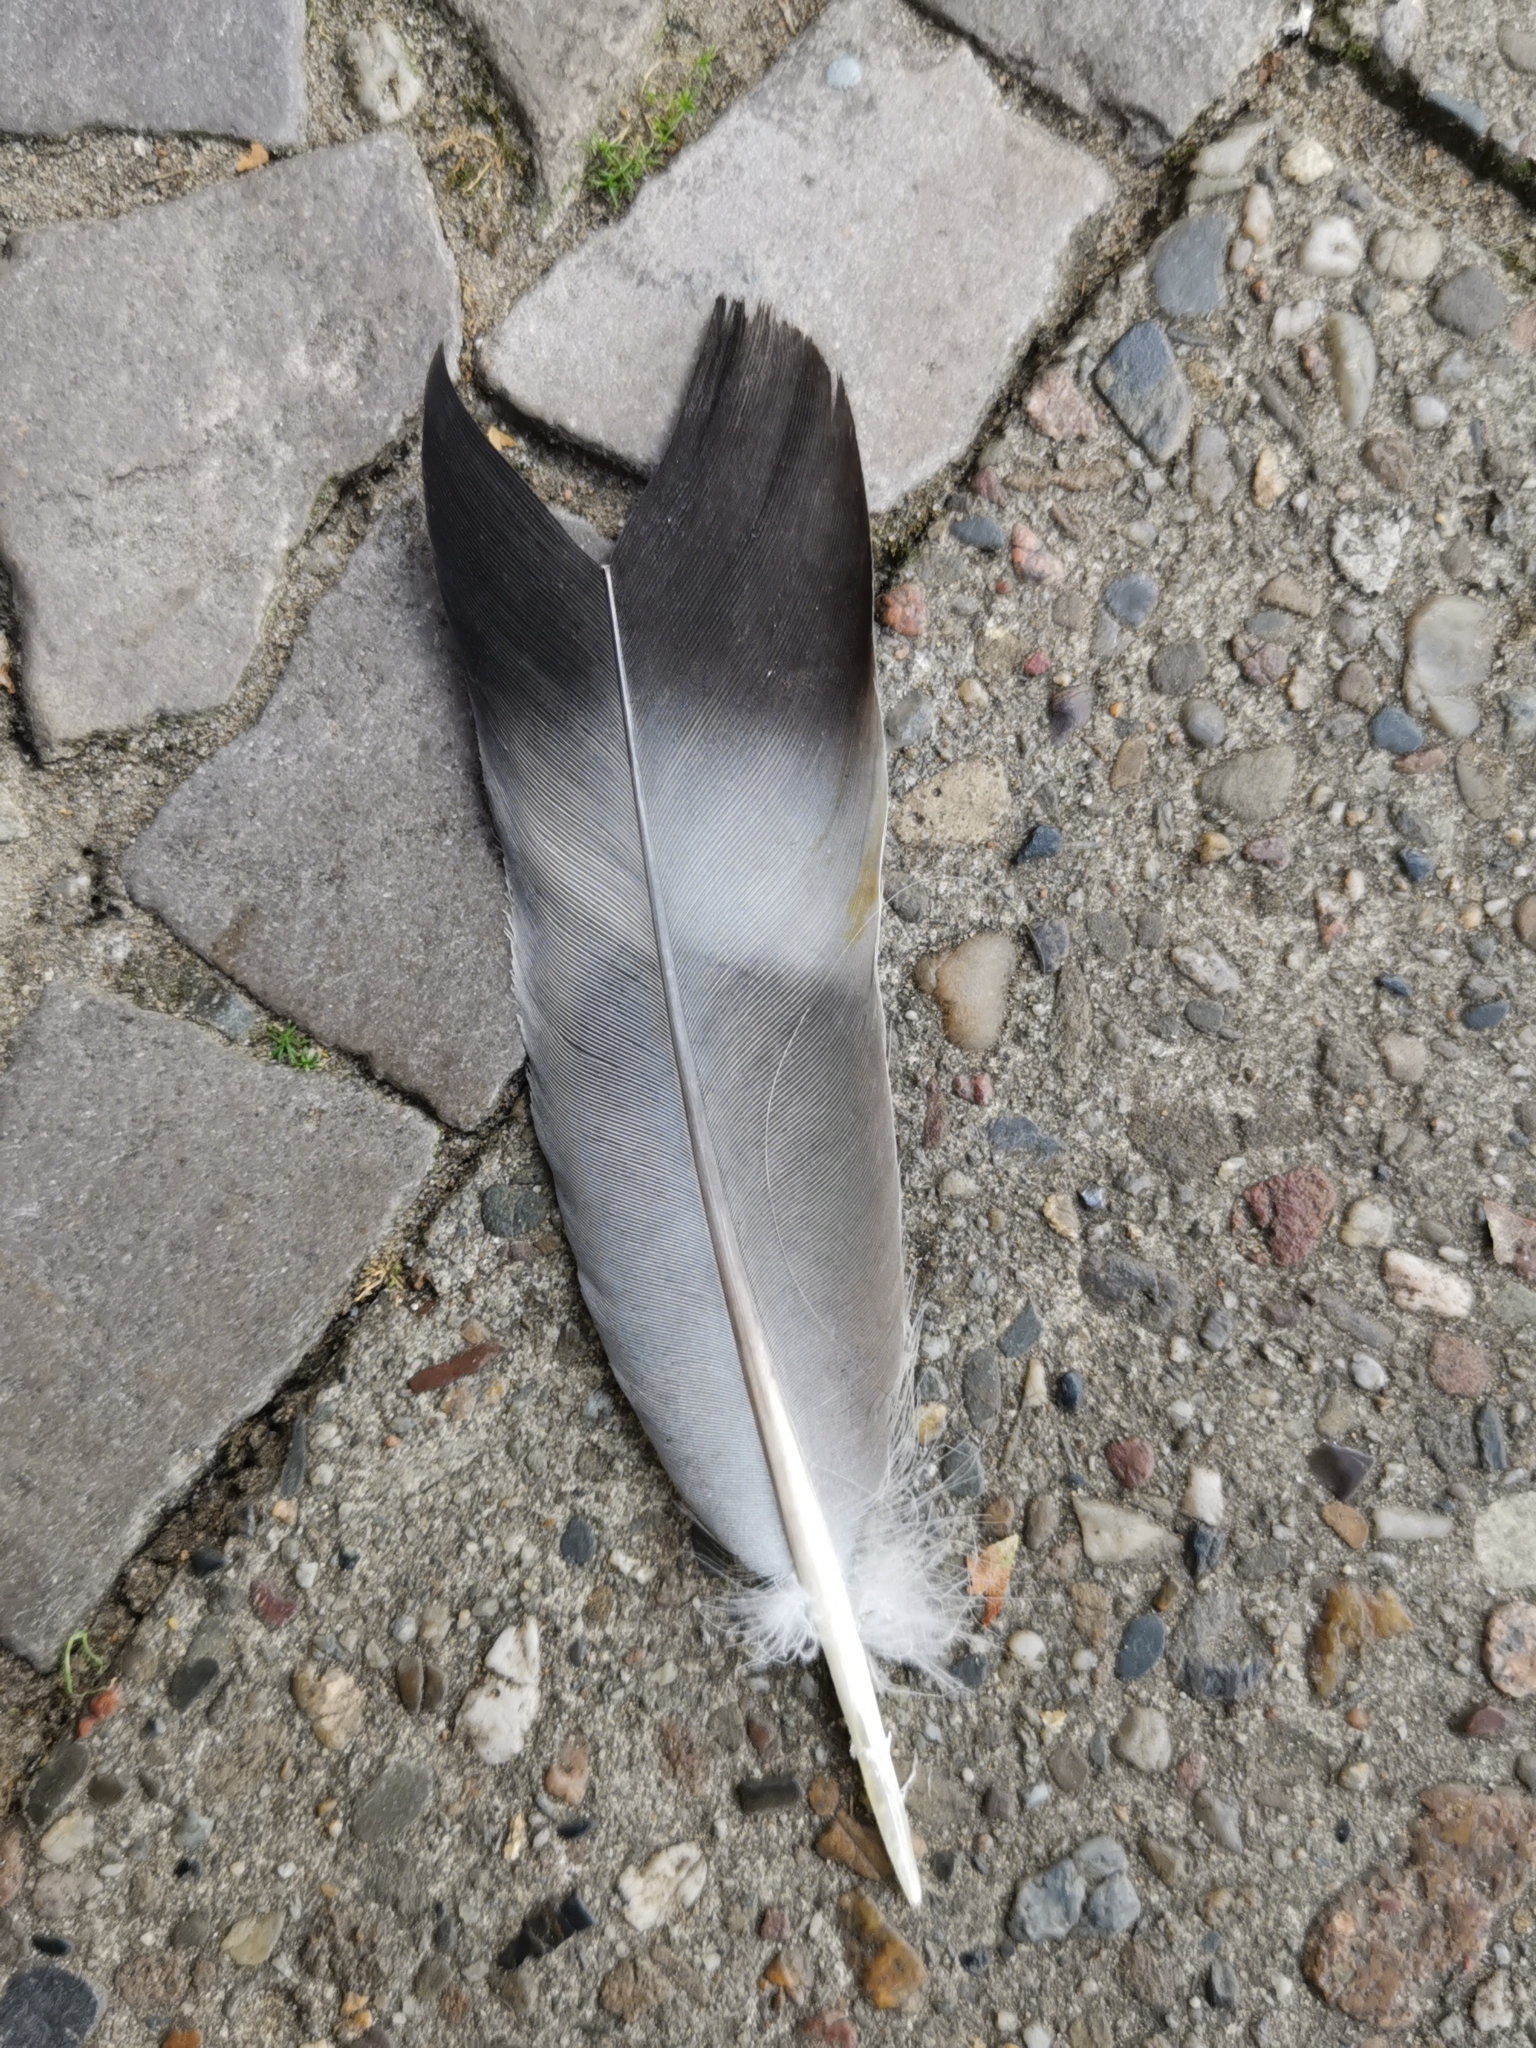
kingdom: Animalia
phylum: Chordata
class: Aves
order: Columbiformes
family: Columbidae
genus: Columba
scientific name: Columba palumbus
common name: Common wood pigeon
